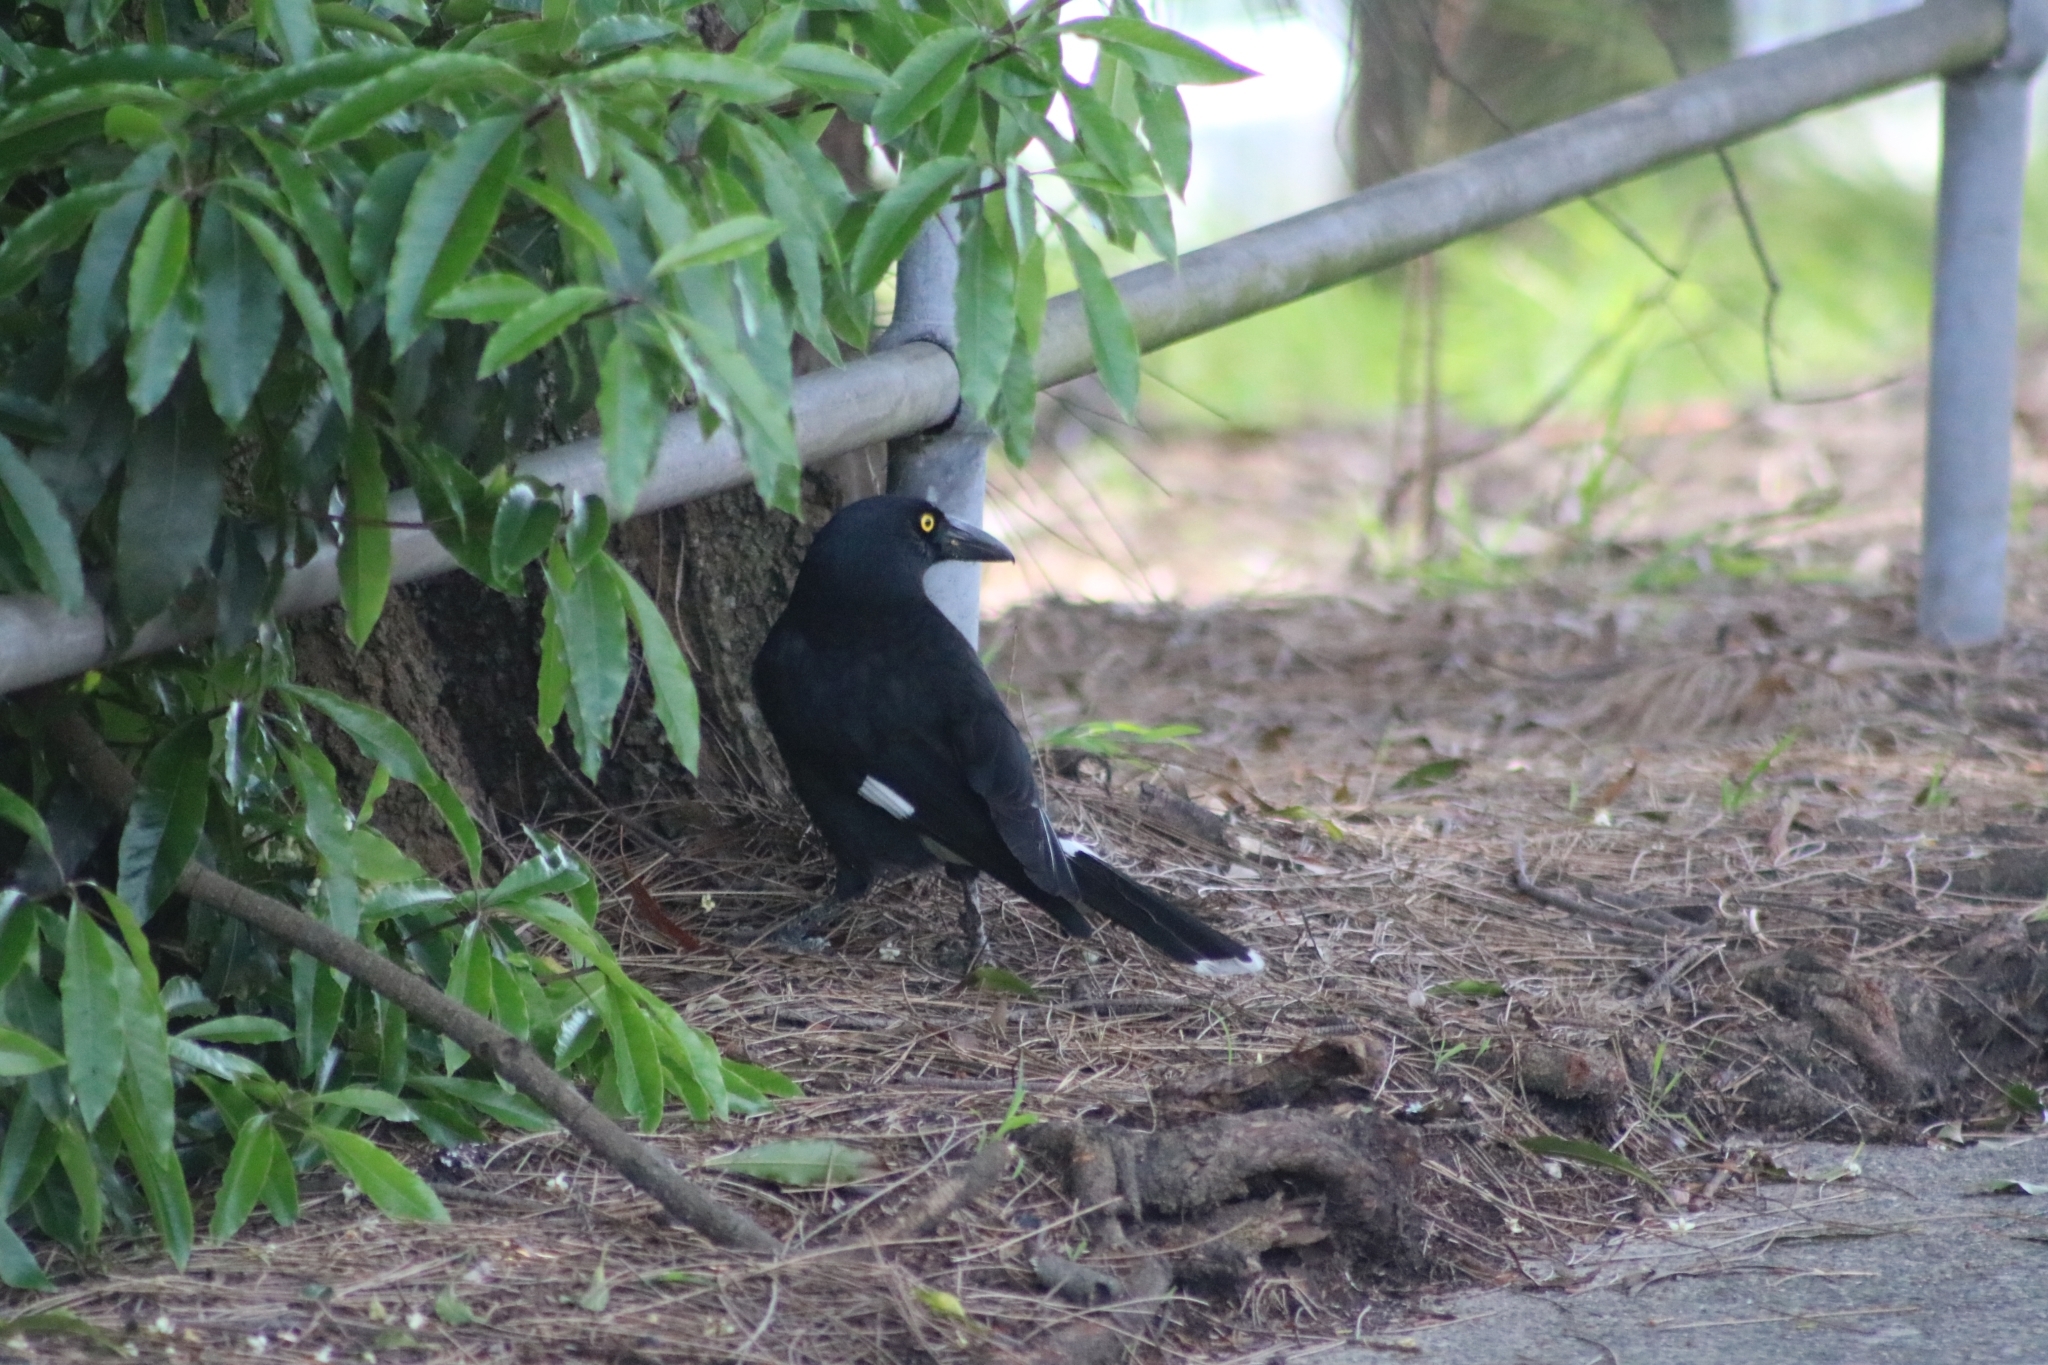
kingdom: Animalia
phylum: Chordata
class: Aves
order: Passeriformes
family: Cracticidae
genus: Strepera
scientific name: Strepera graculina
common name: Pied currawong
